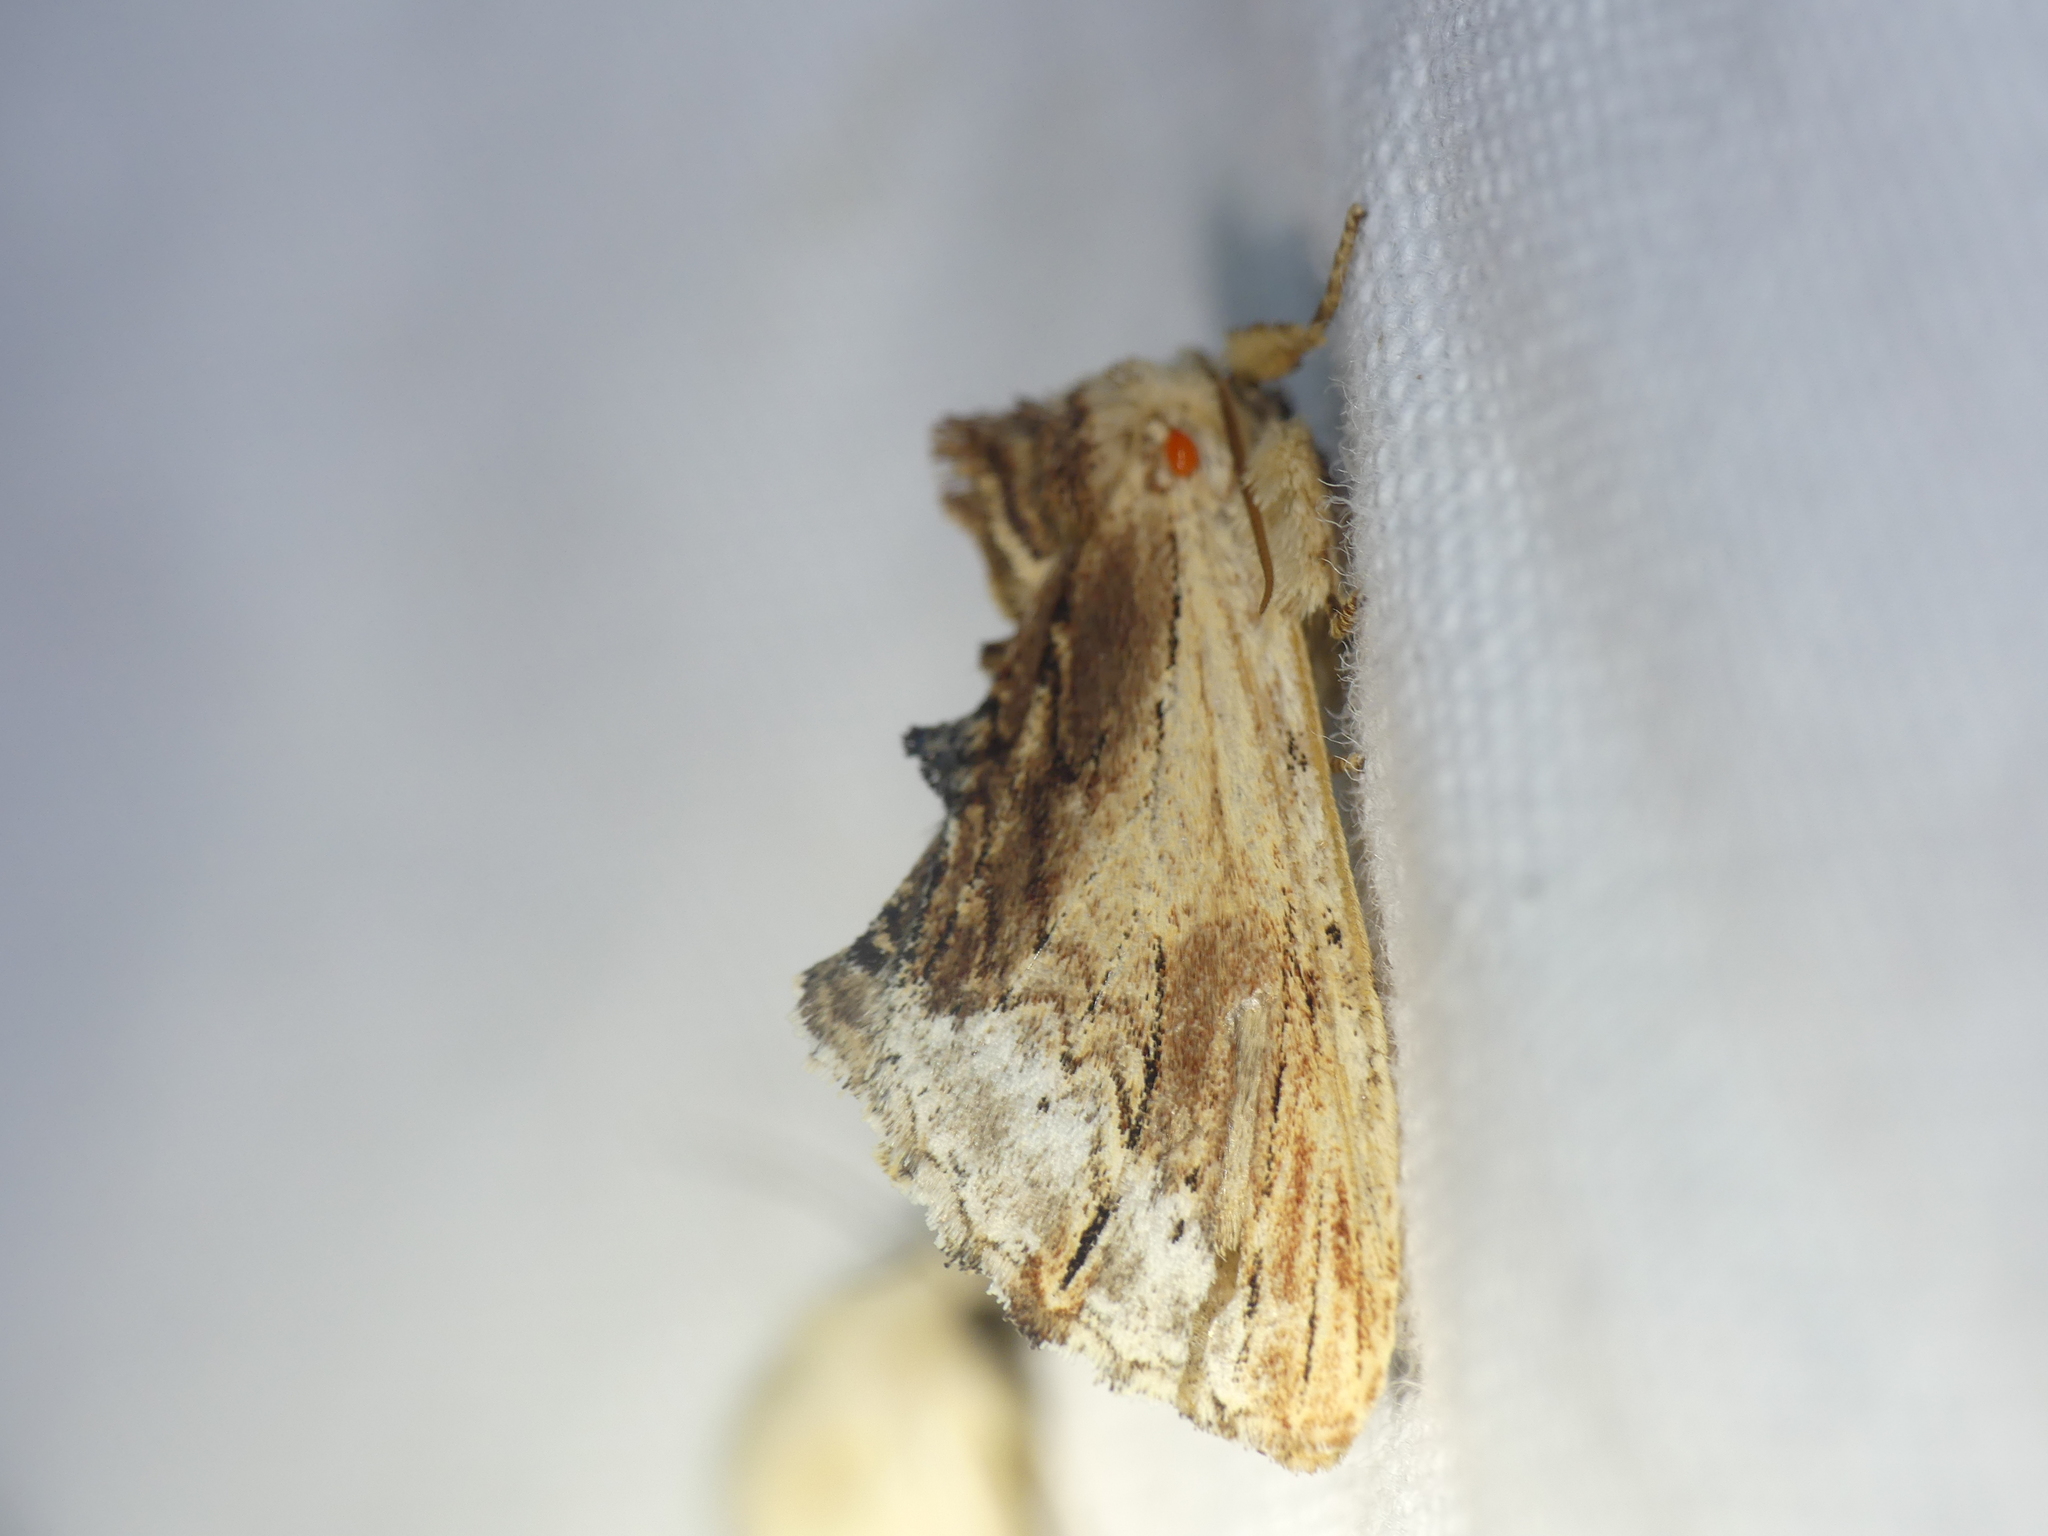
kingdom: Animalia
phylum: Arthropoda
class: Insecta
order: Lepidoptera
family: Notodontidae
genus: Ptilodon
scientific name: Ptilodon cucullina
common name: Maple prominent
